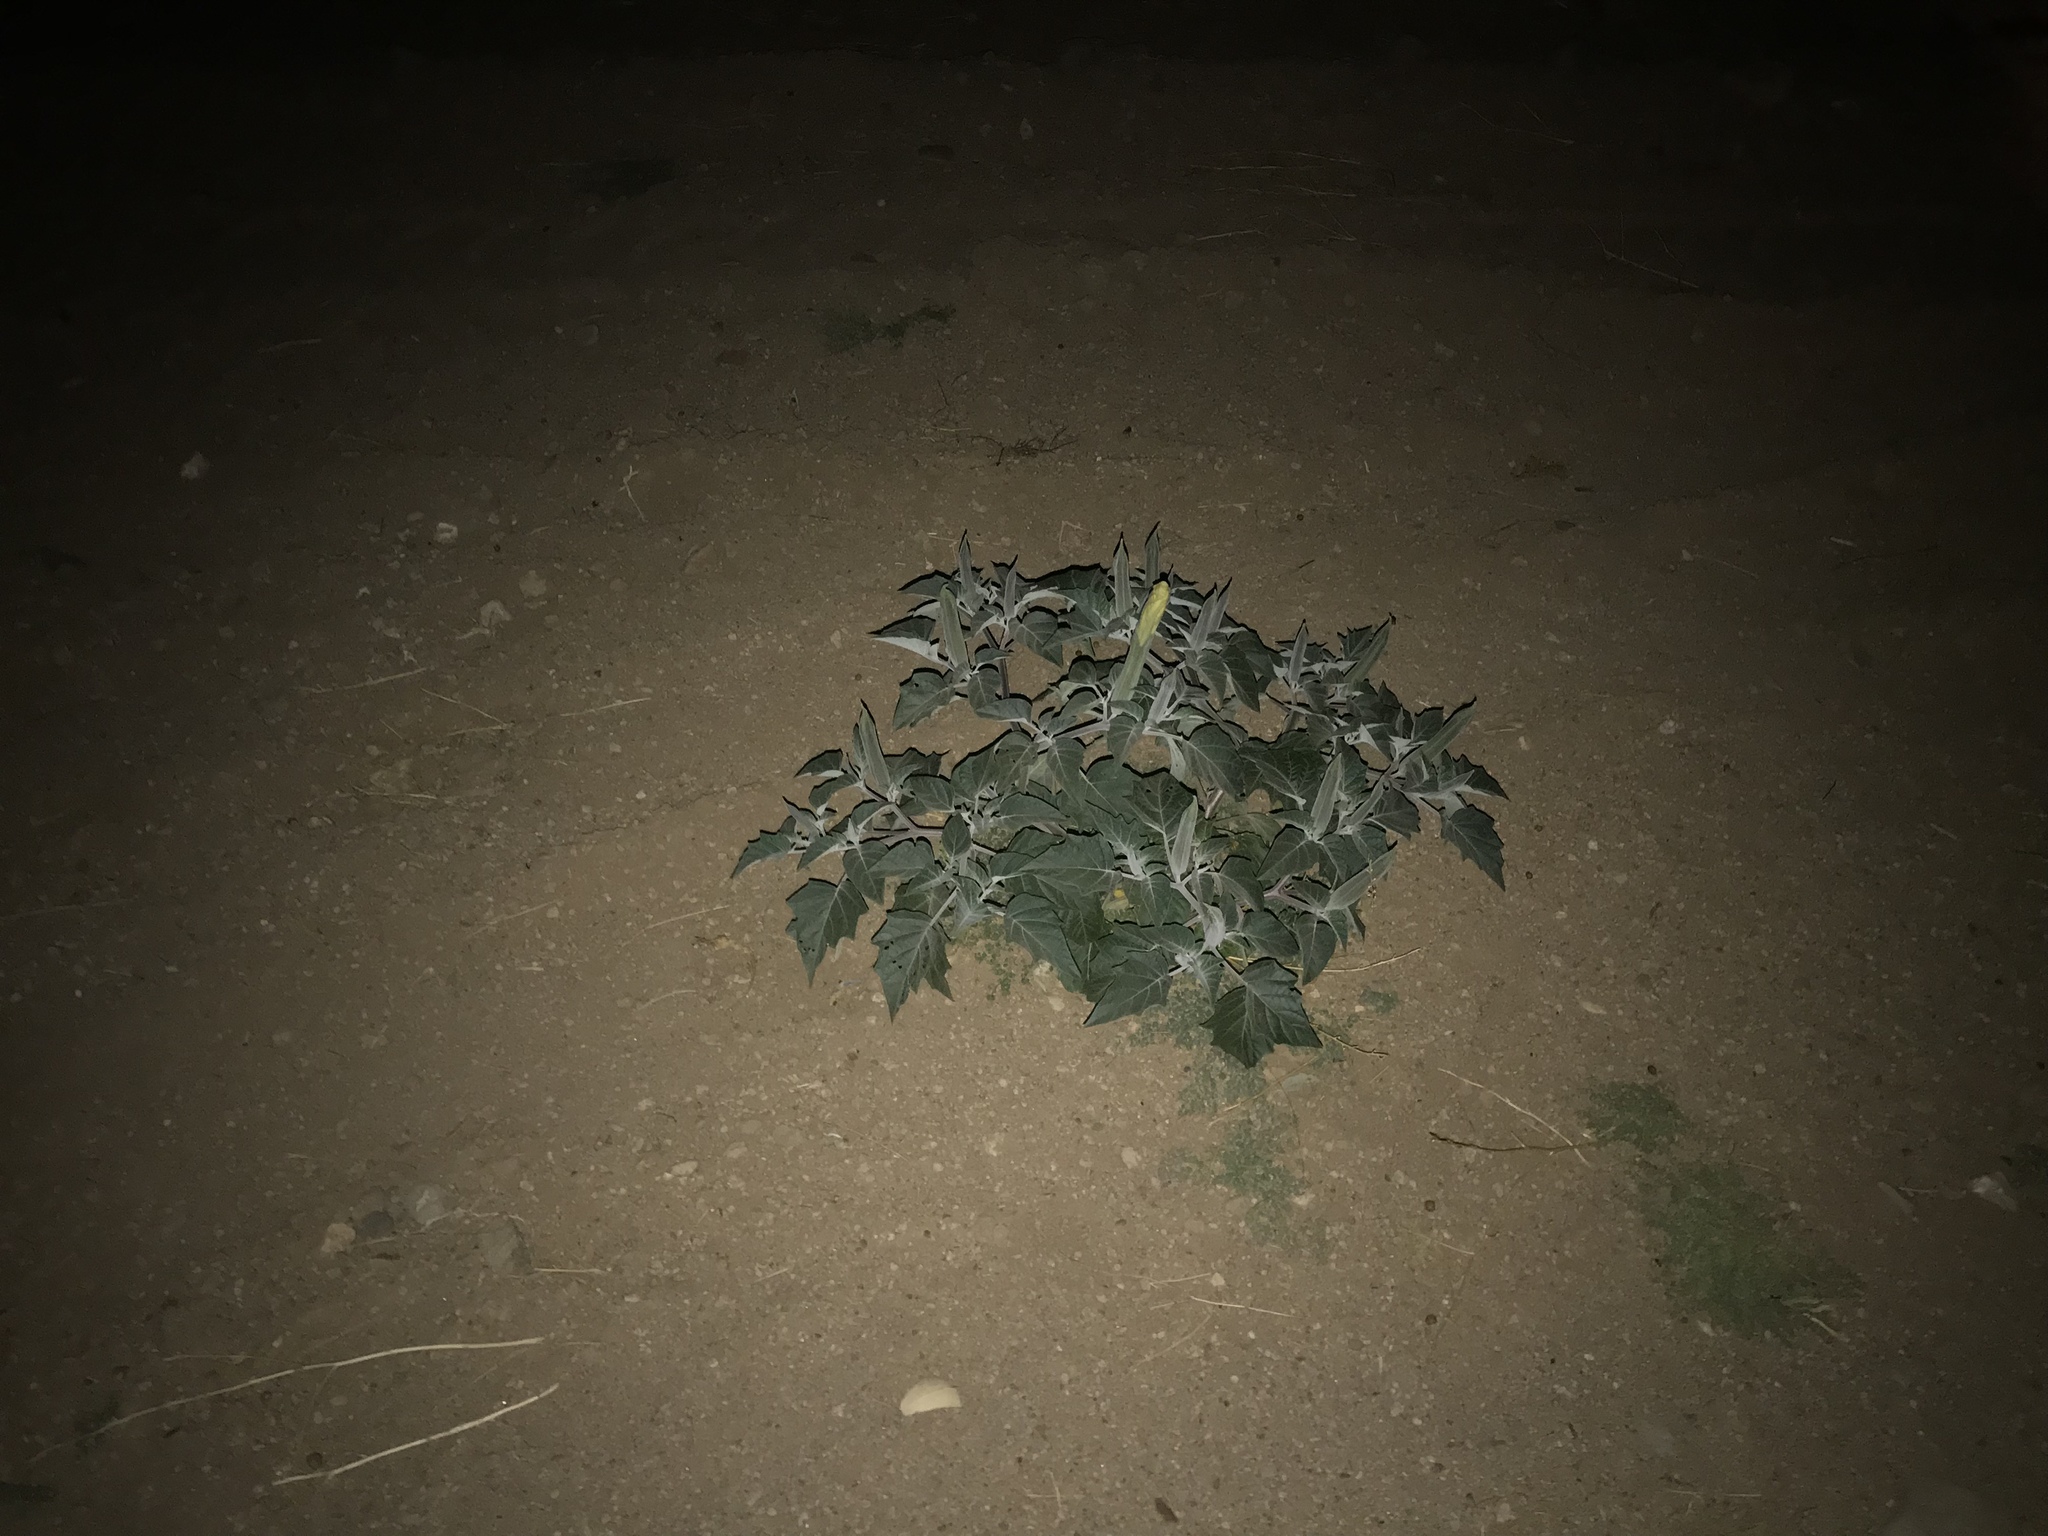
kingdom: Plantae
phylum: Tracheophyta
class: Magnoliopsida
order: Solanales
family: Solanaceae
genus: Datura
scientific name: Datura wrightii
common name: Sacred thorn-apple
